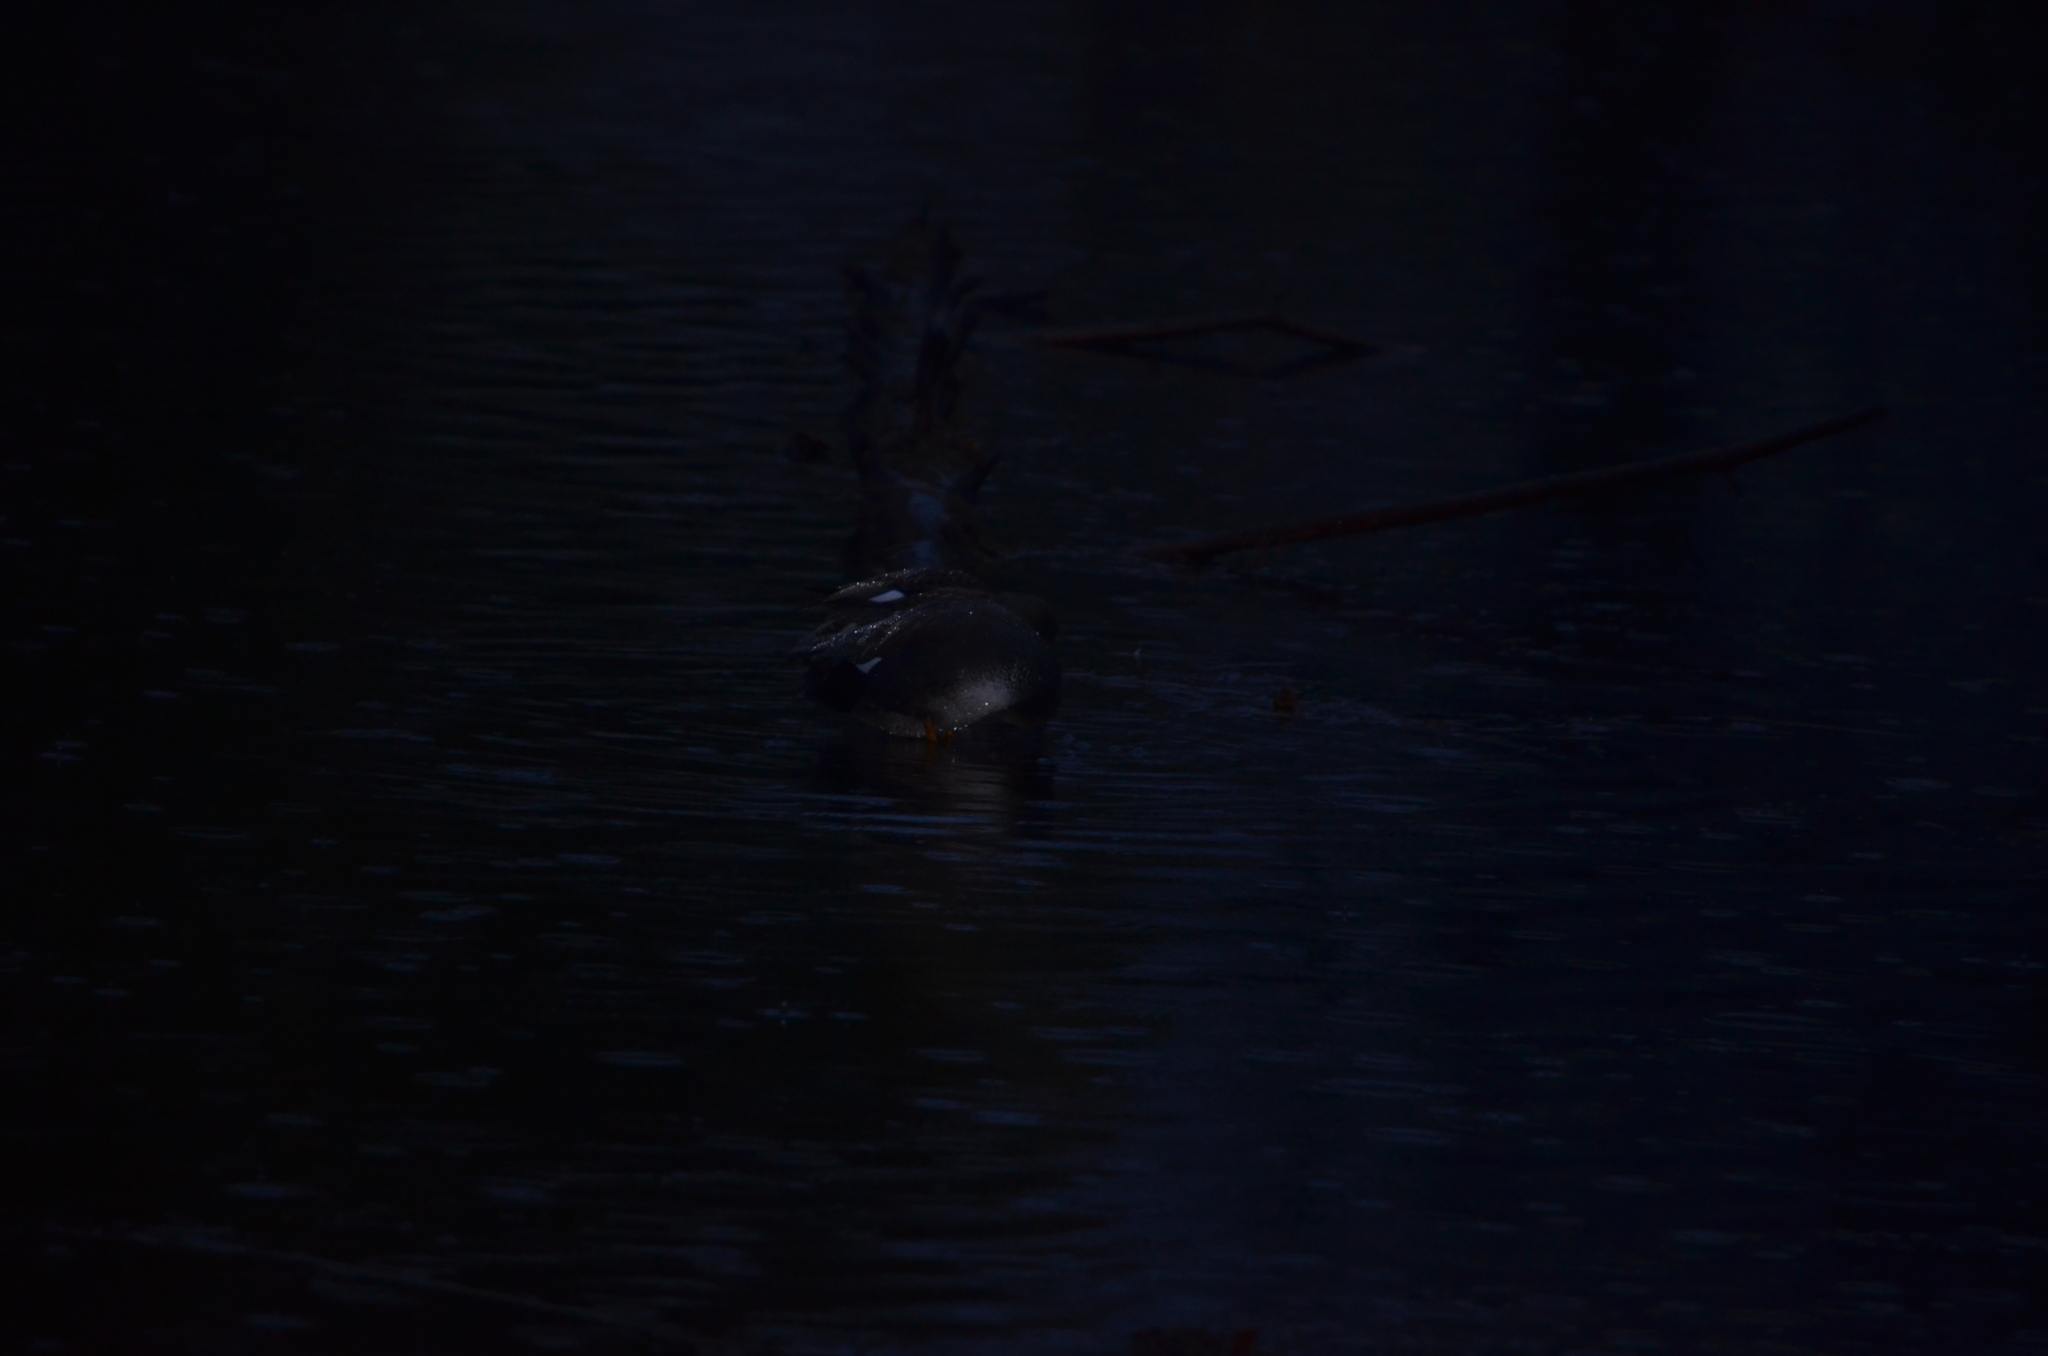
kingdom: Animalia
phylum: Chordata
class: Aves
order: Anseriformes
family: Anatidae
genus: Mareca
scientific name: Mareca strepera
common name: Gadwall
